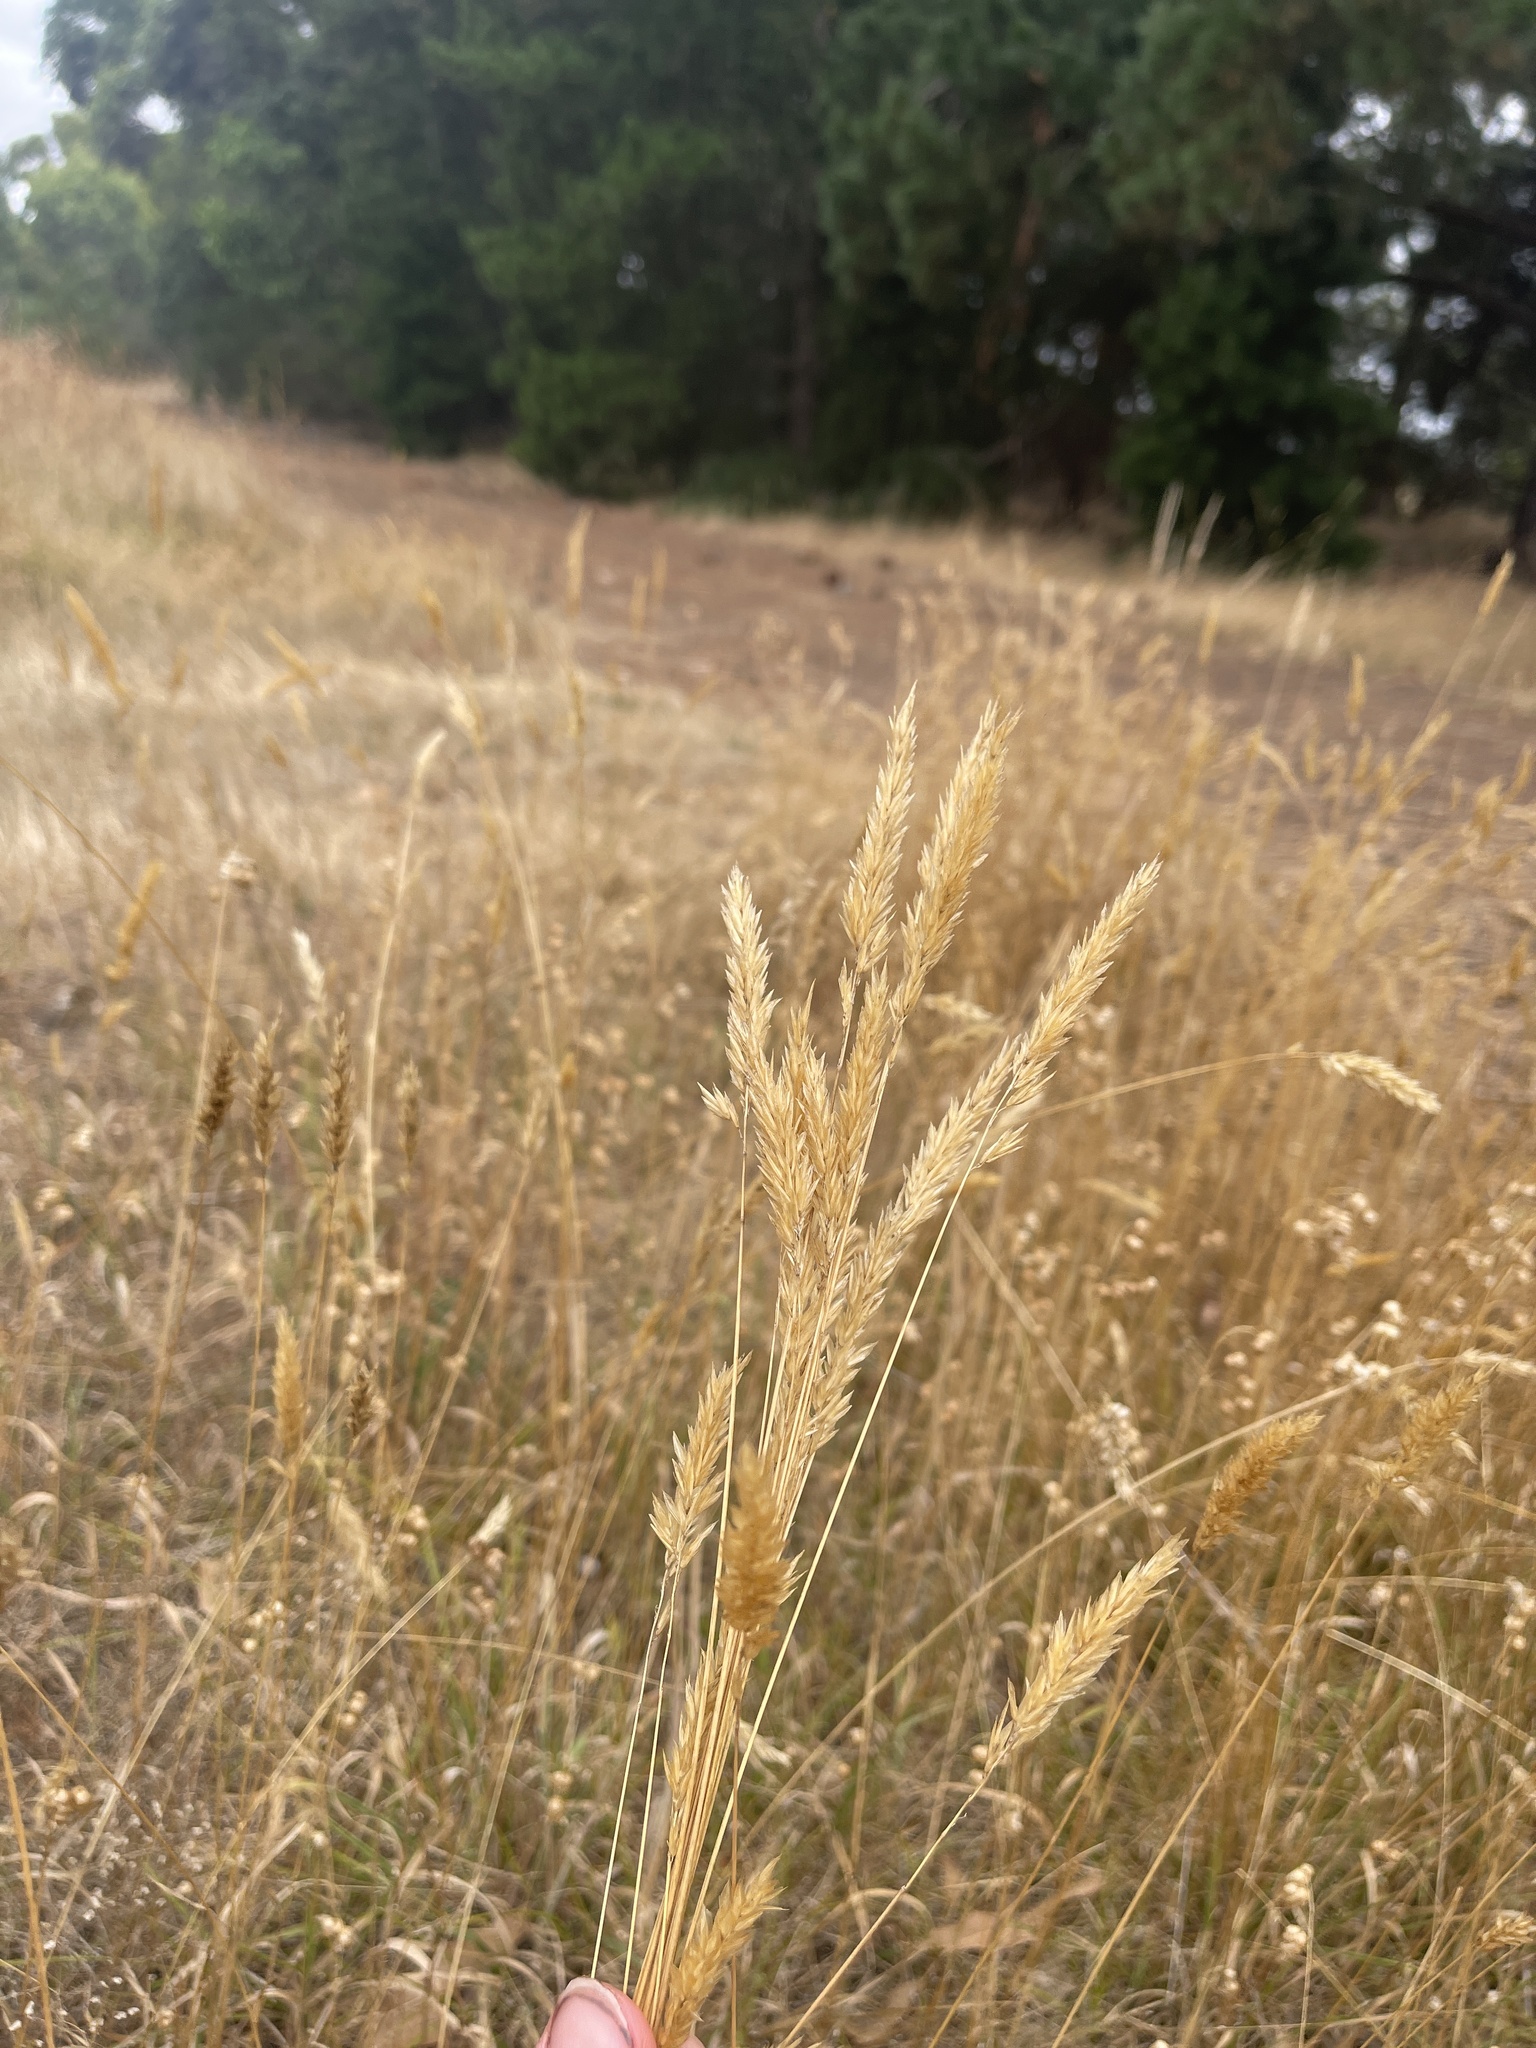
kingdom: Plantae
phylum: Tracheophyta
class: Liliopsida
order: Poales
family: Poaceae
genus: Anthoxanthum
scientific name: Anthoxanthum odoratum
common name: Sweet vernalgrass
